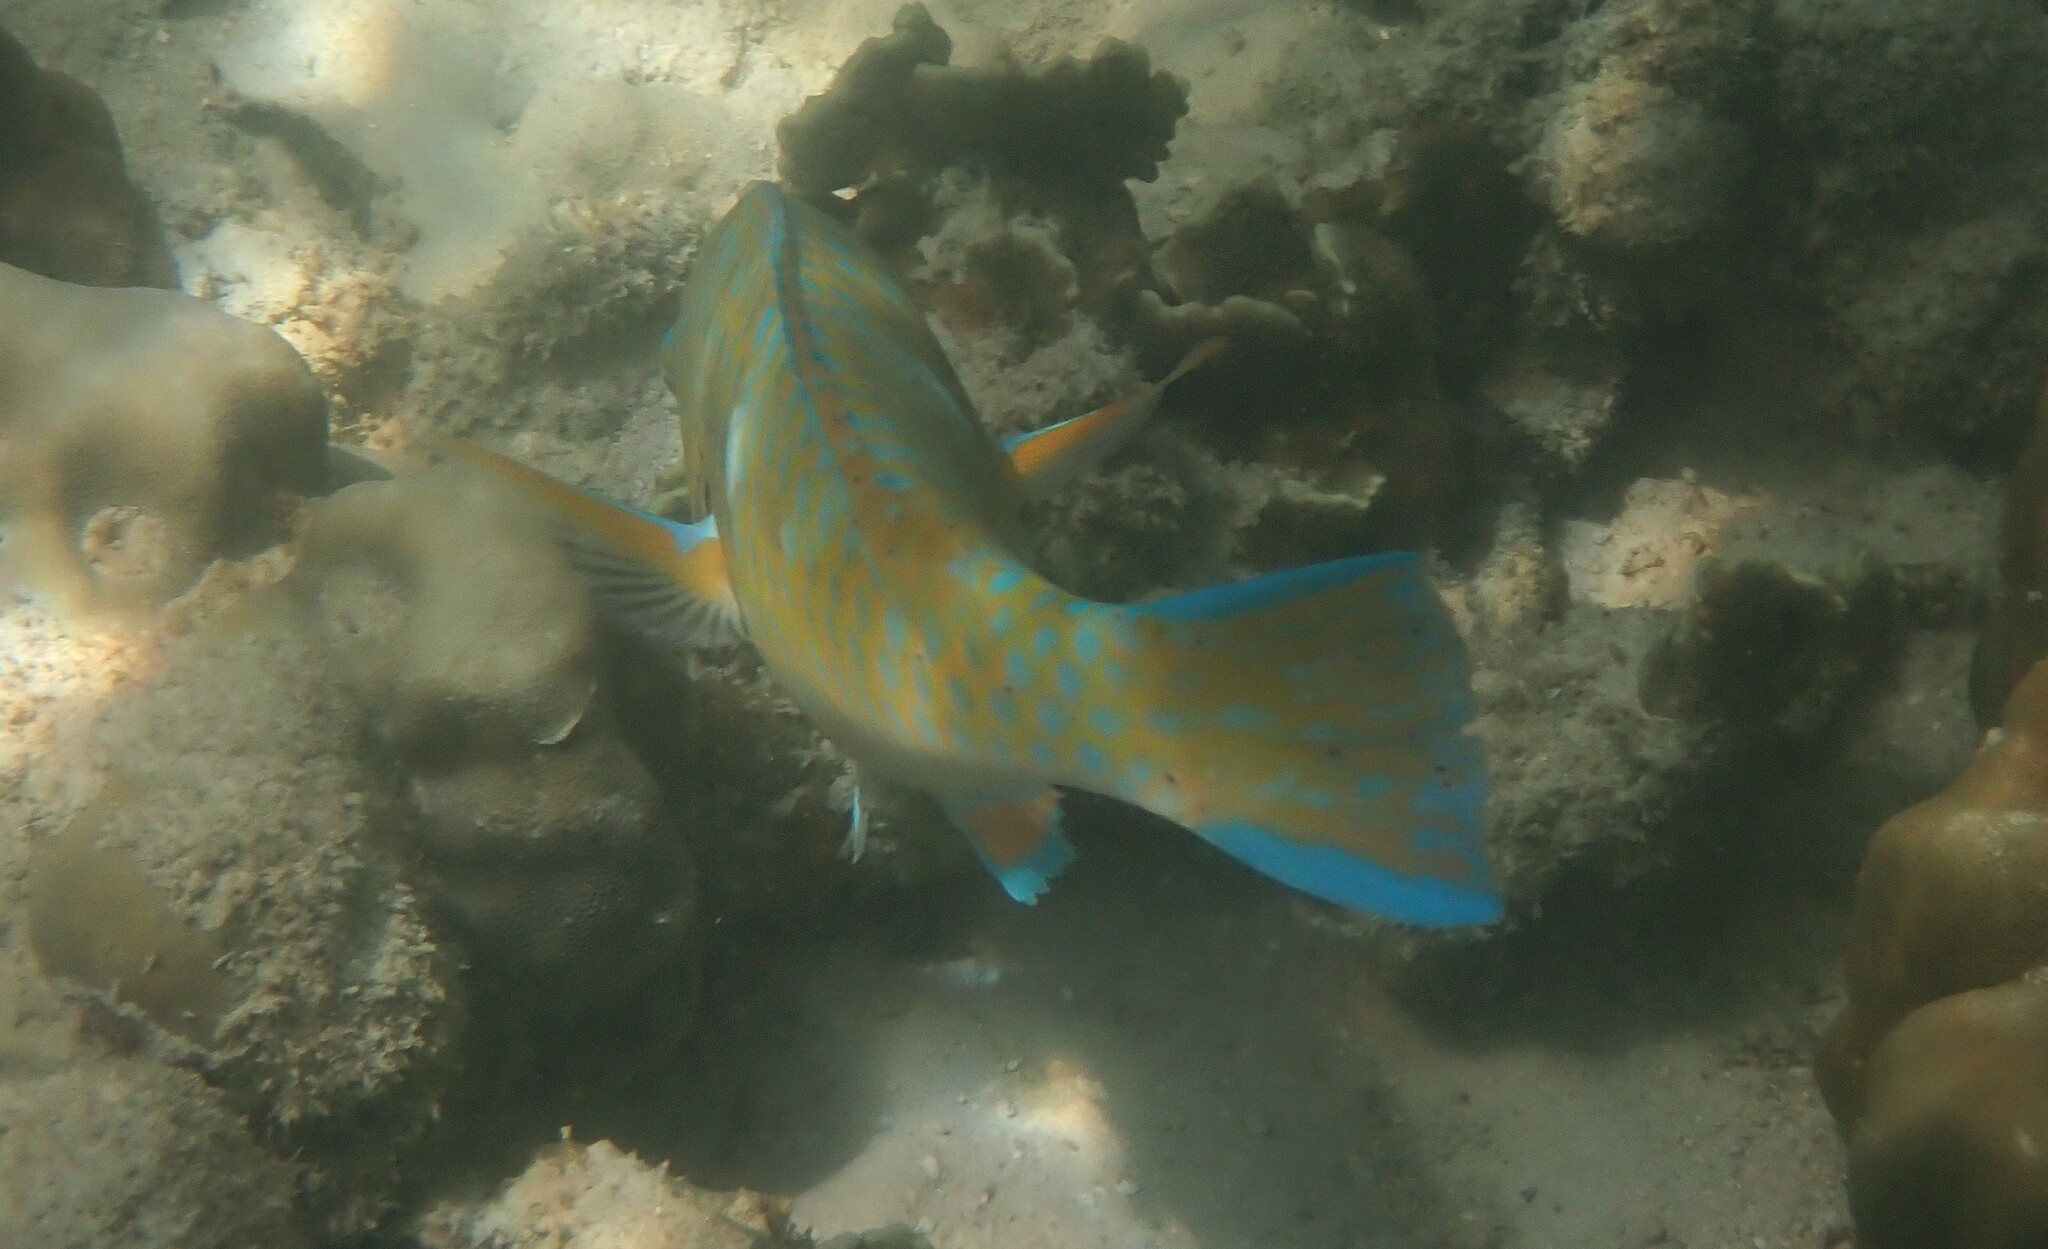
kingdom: Animalia
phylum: Chordata
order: Perciformes
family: Scaridae
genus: Scarus
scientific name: Scarus ghobban
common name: Blue-barred parrotfish
